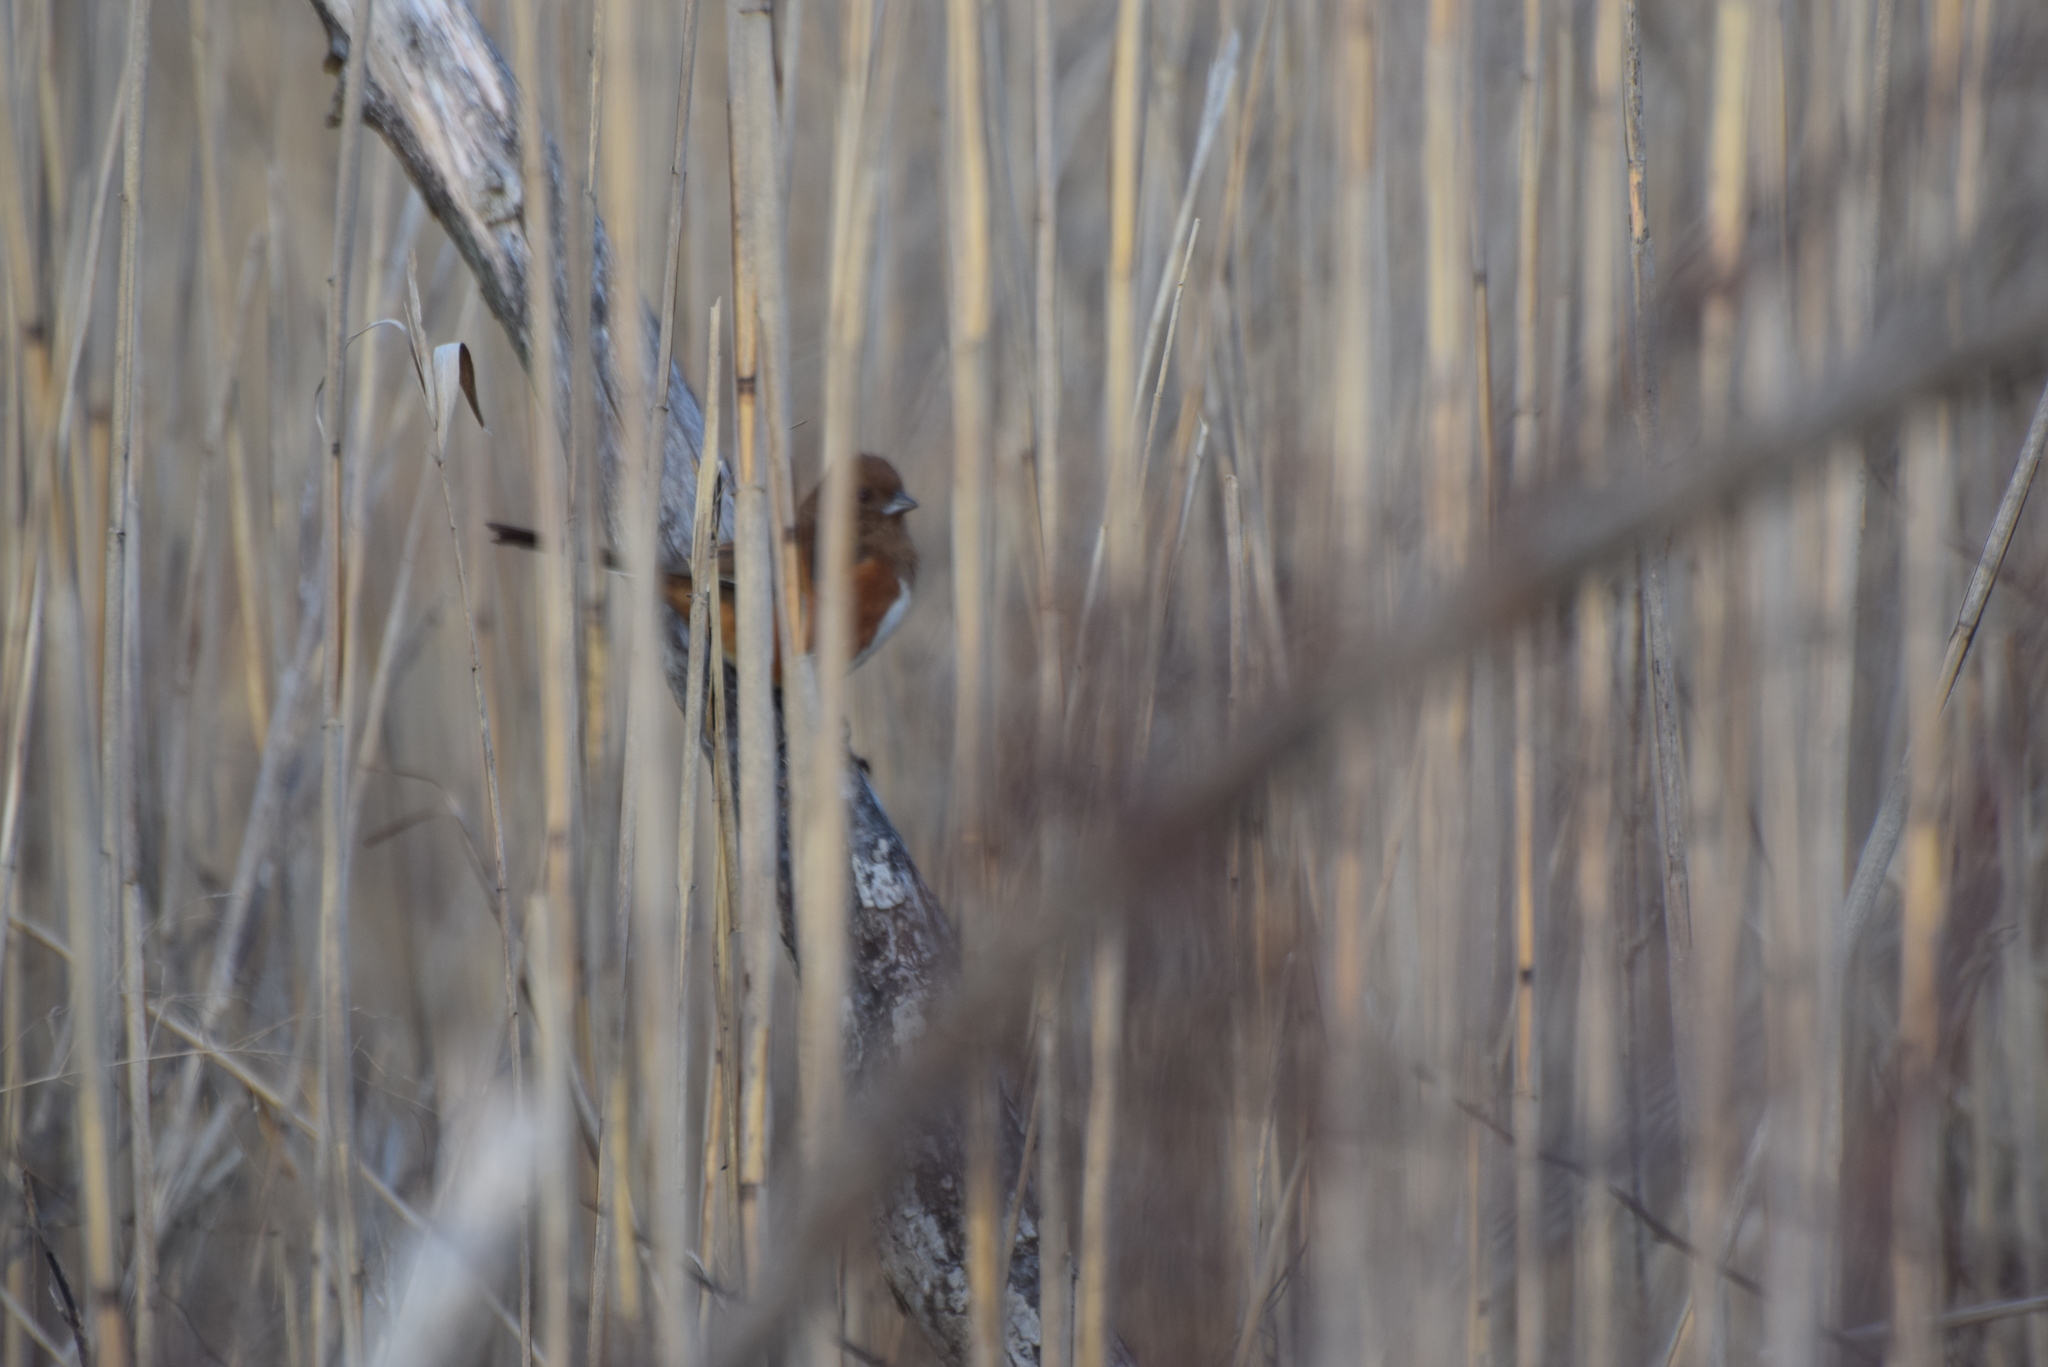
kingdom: Animalia
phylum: Chordata
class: Aves
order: Passeriformes
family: Passerellidae
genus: Pipilo
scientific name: Pipilo erythrophthalmus
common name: Eastern towhee
